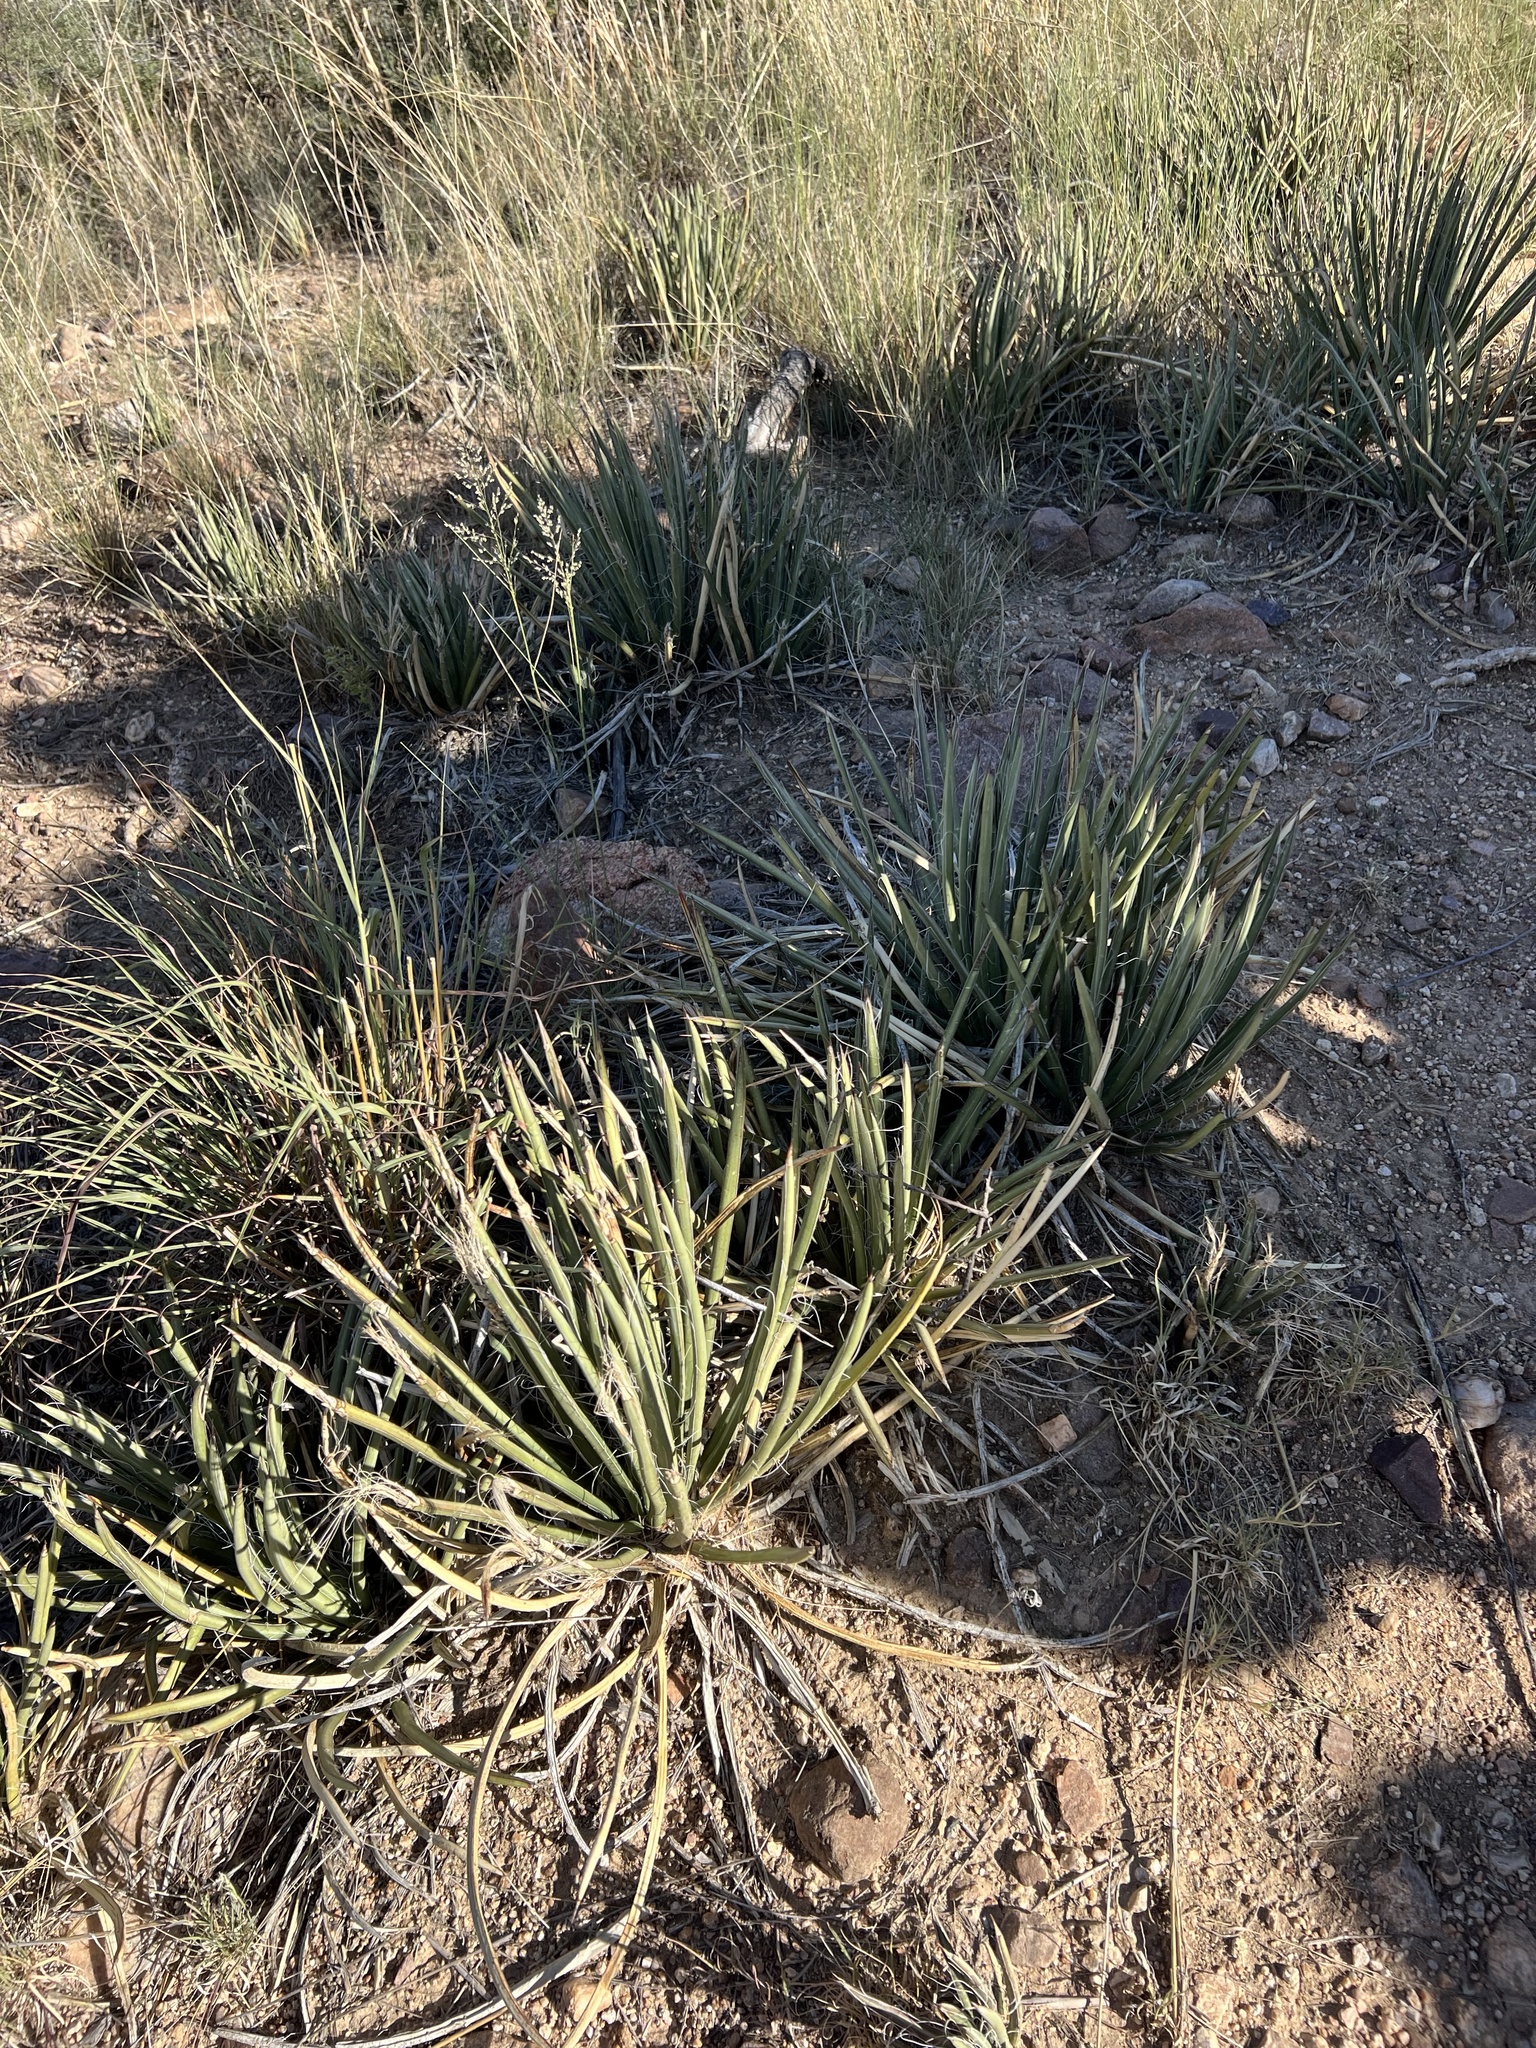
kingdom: Plantae
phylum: Tracheophyta
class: Liliopsida
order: Asparagales
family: Asparagaceae
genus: Agave
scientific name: Agave schottii
